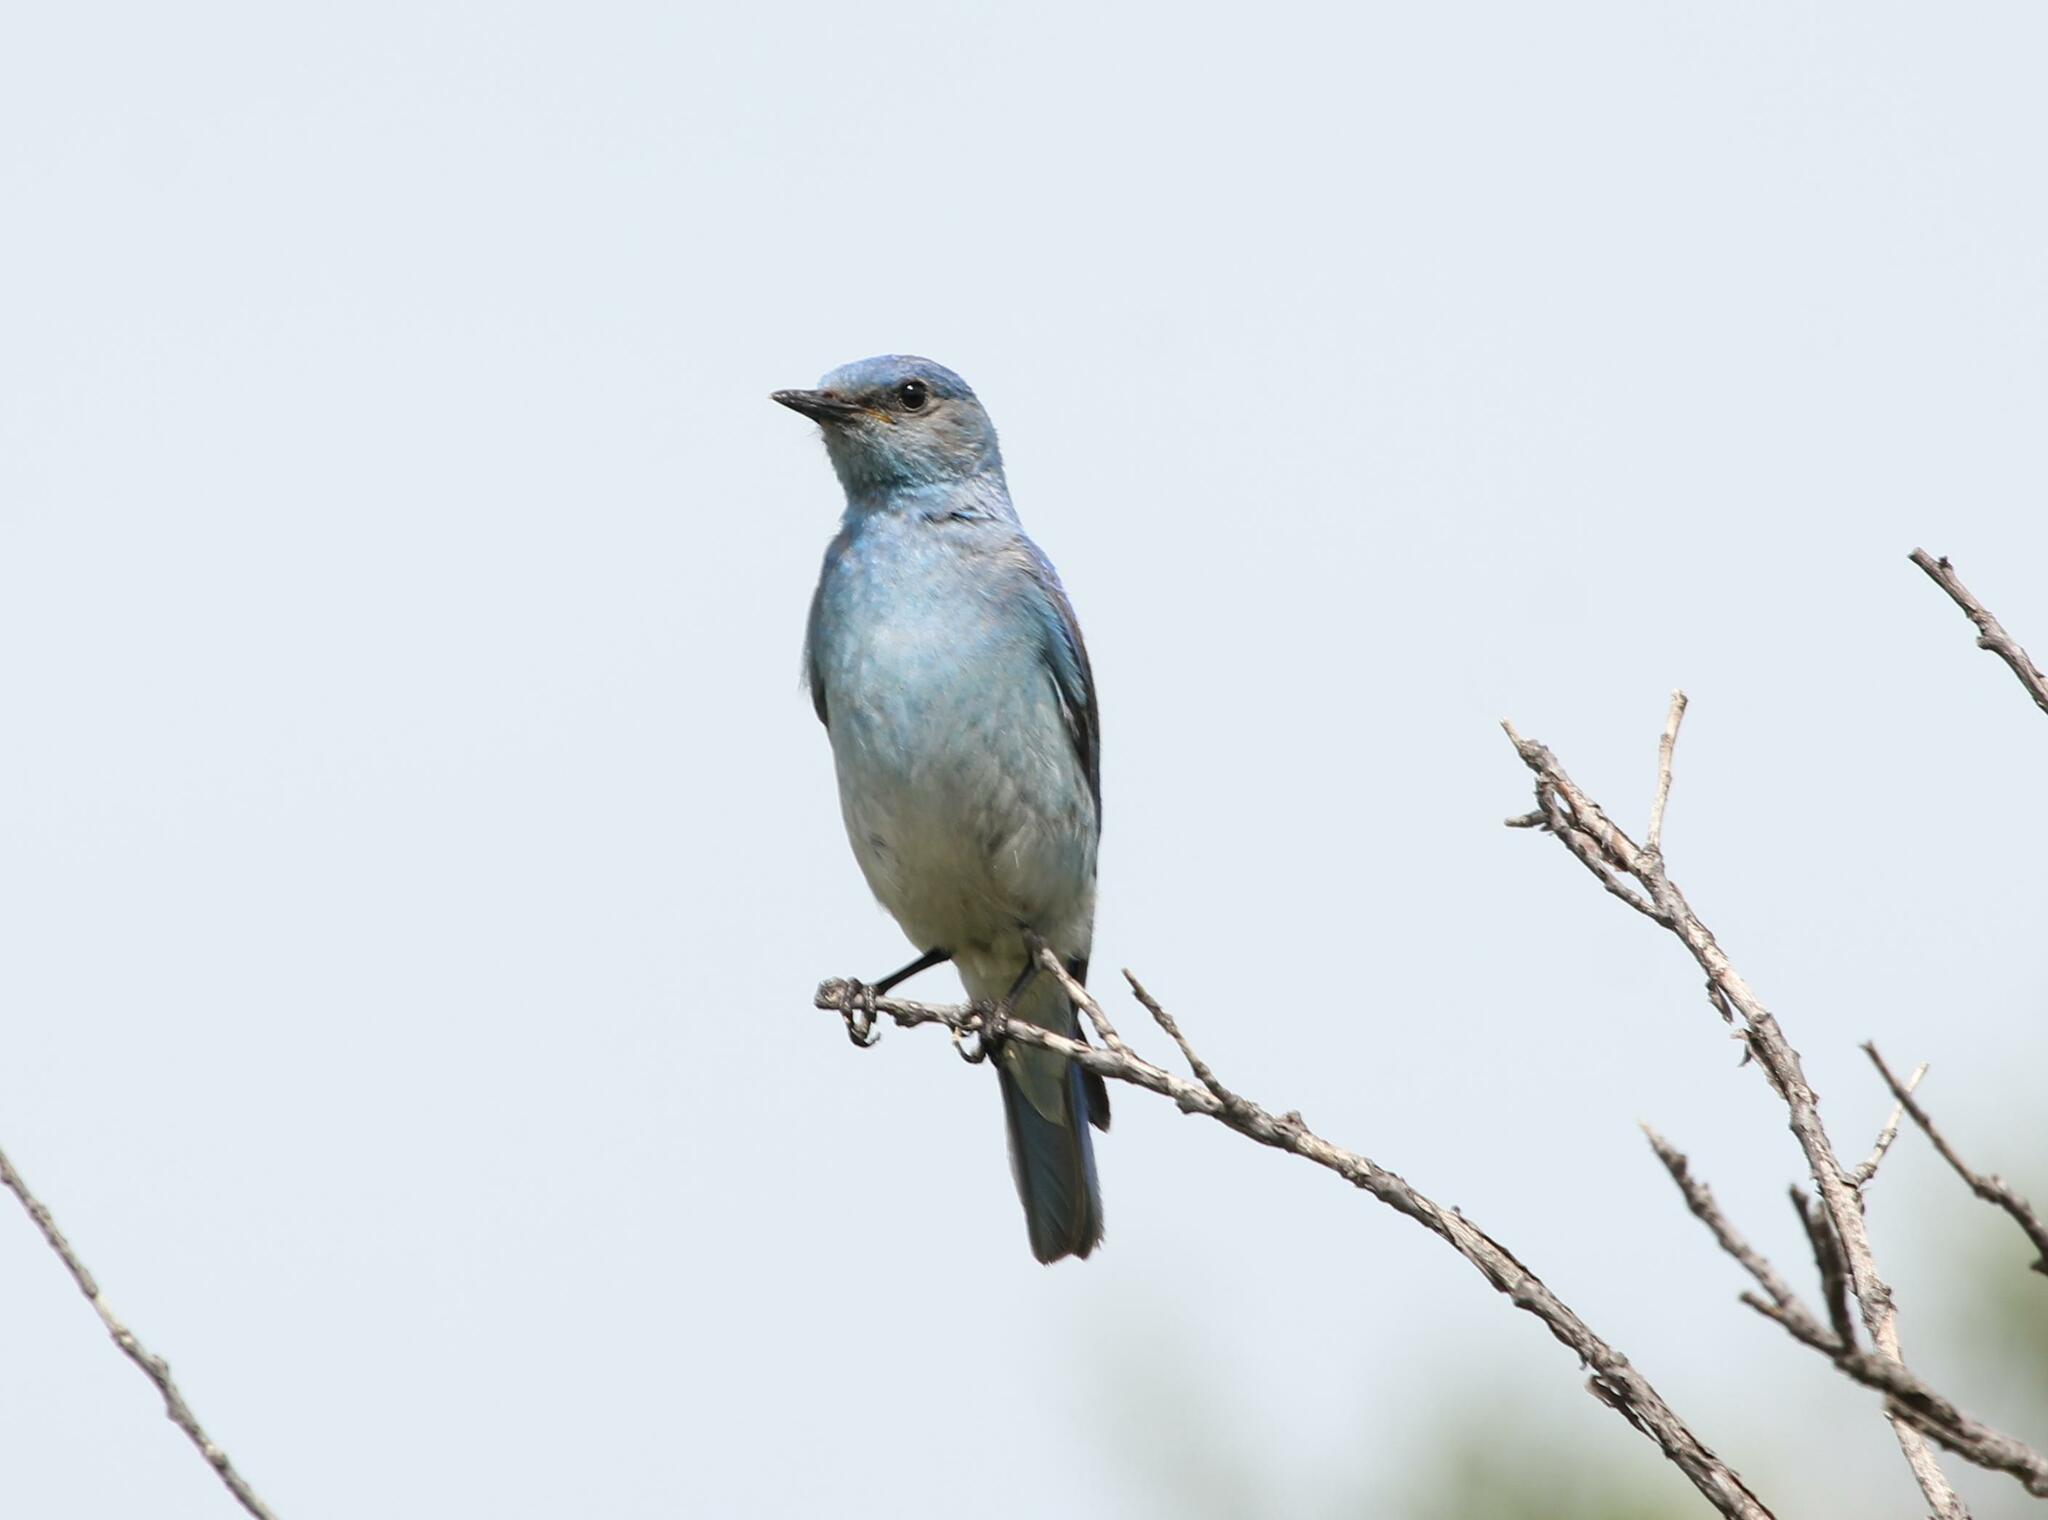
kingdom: Animalia
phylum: Chordata
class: Aves
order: Passeriformes
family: Turdidae
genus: Sialia
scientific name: Sialia currucoides
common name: Mountain bluebird
